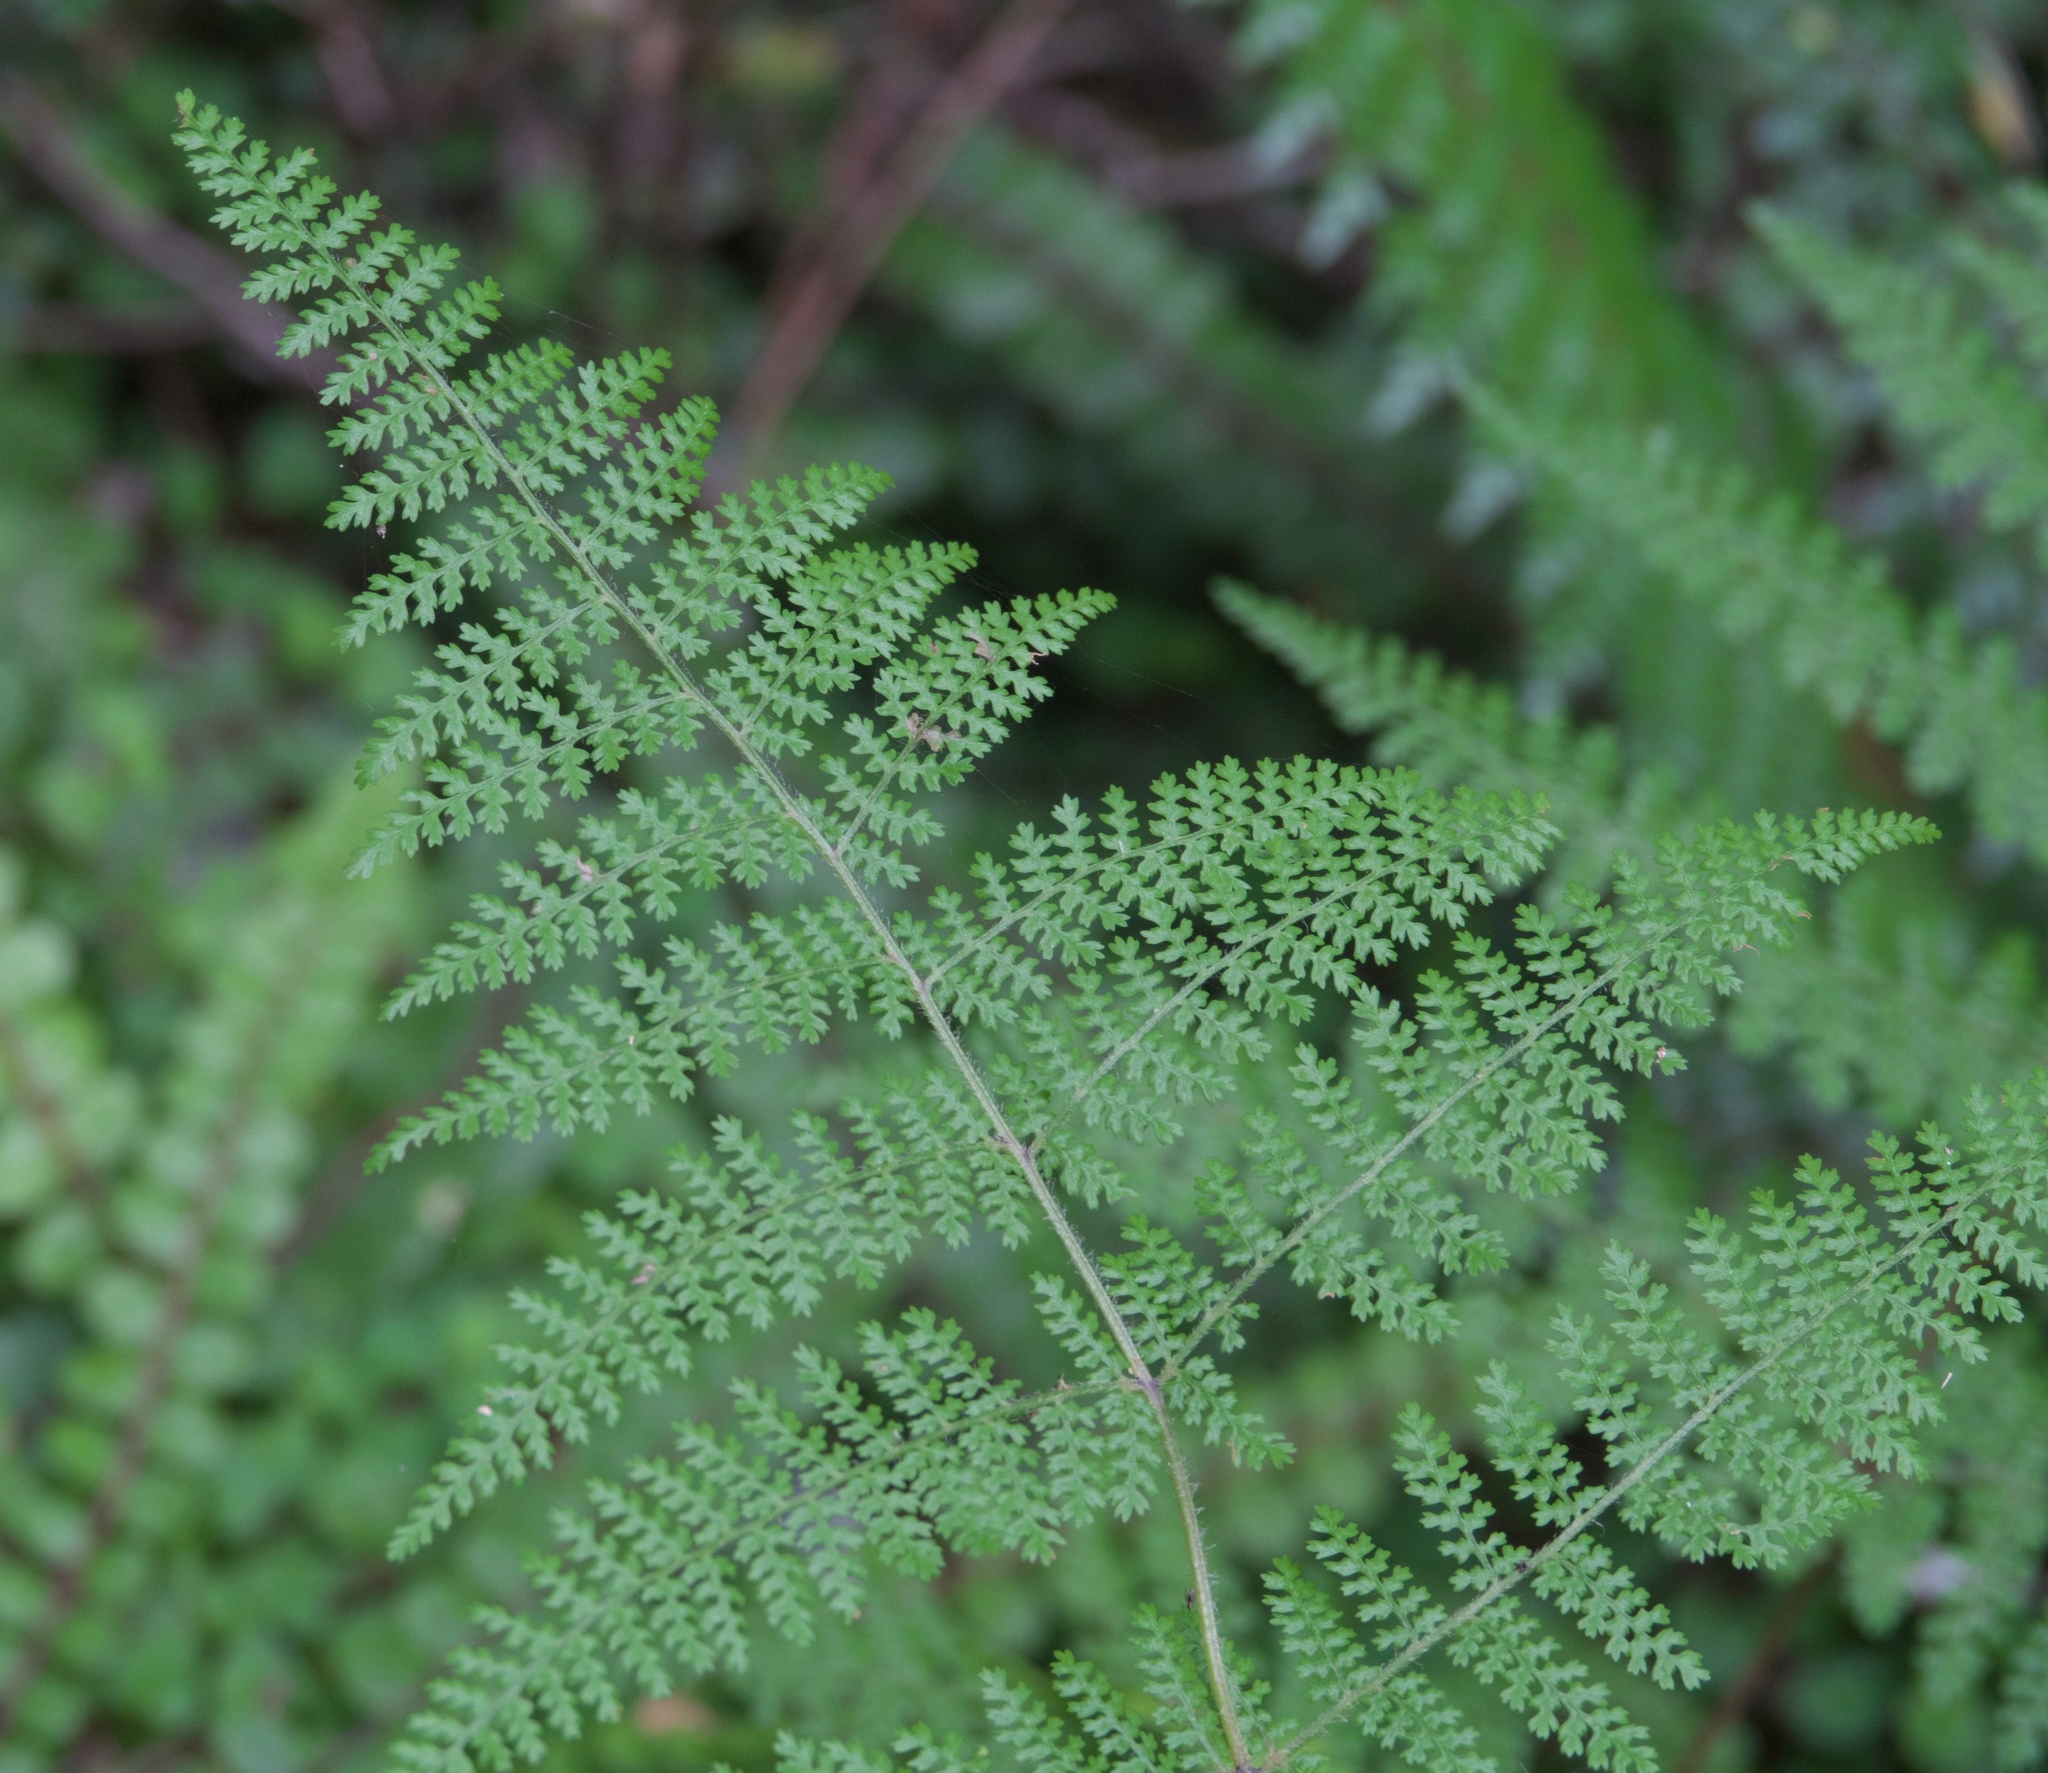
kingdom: Plantae
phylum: Tracheophyta
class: Polypodiopsida
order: Polypodiales
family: Dennstaedtiaceae
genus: Hypolepis
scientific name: Hypolepis millefolium
